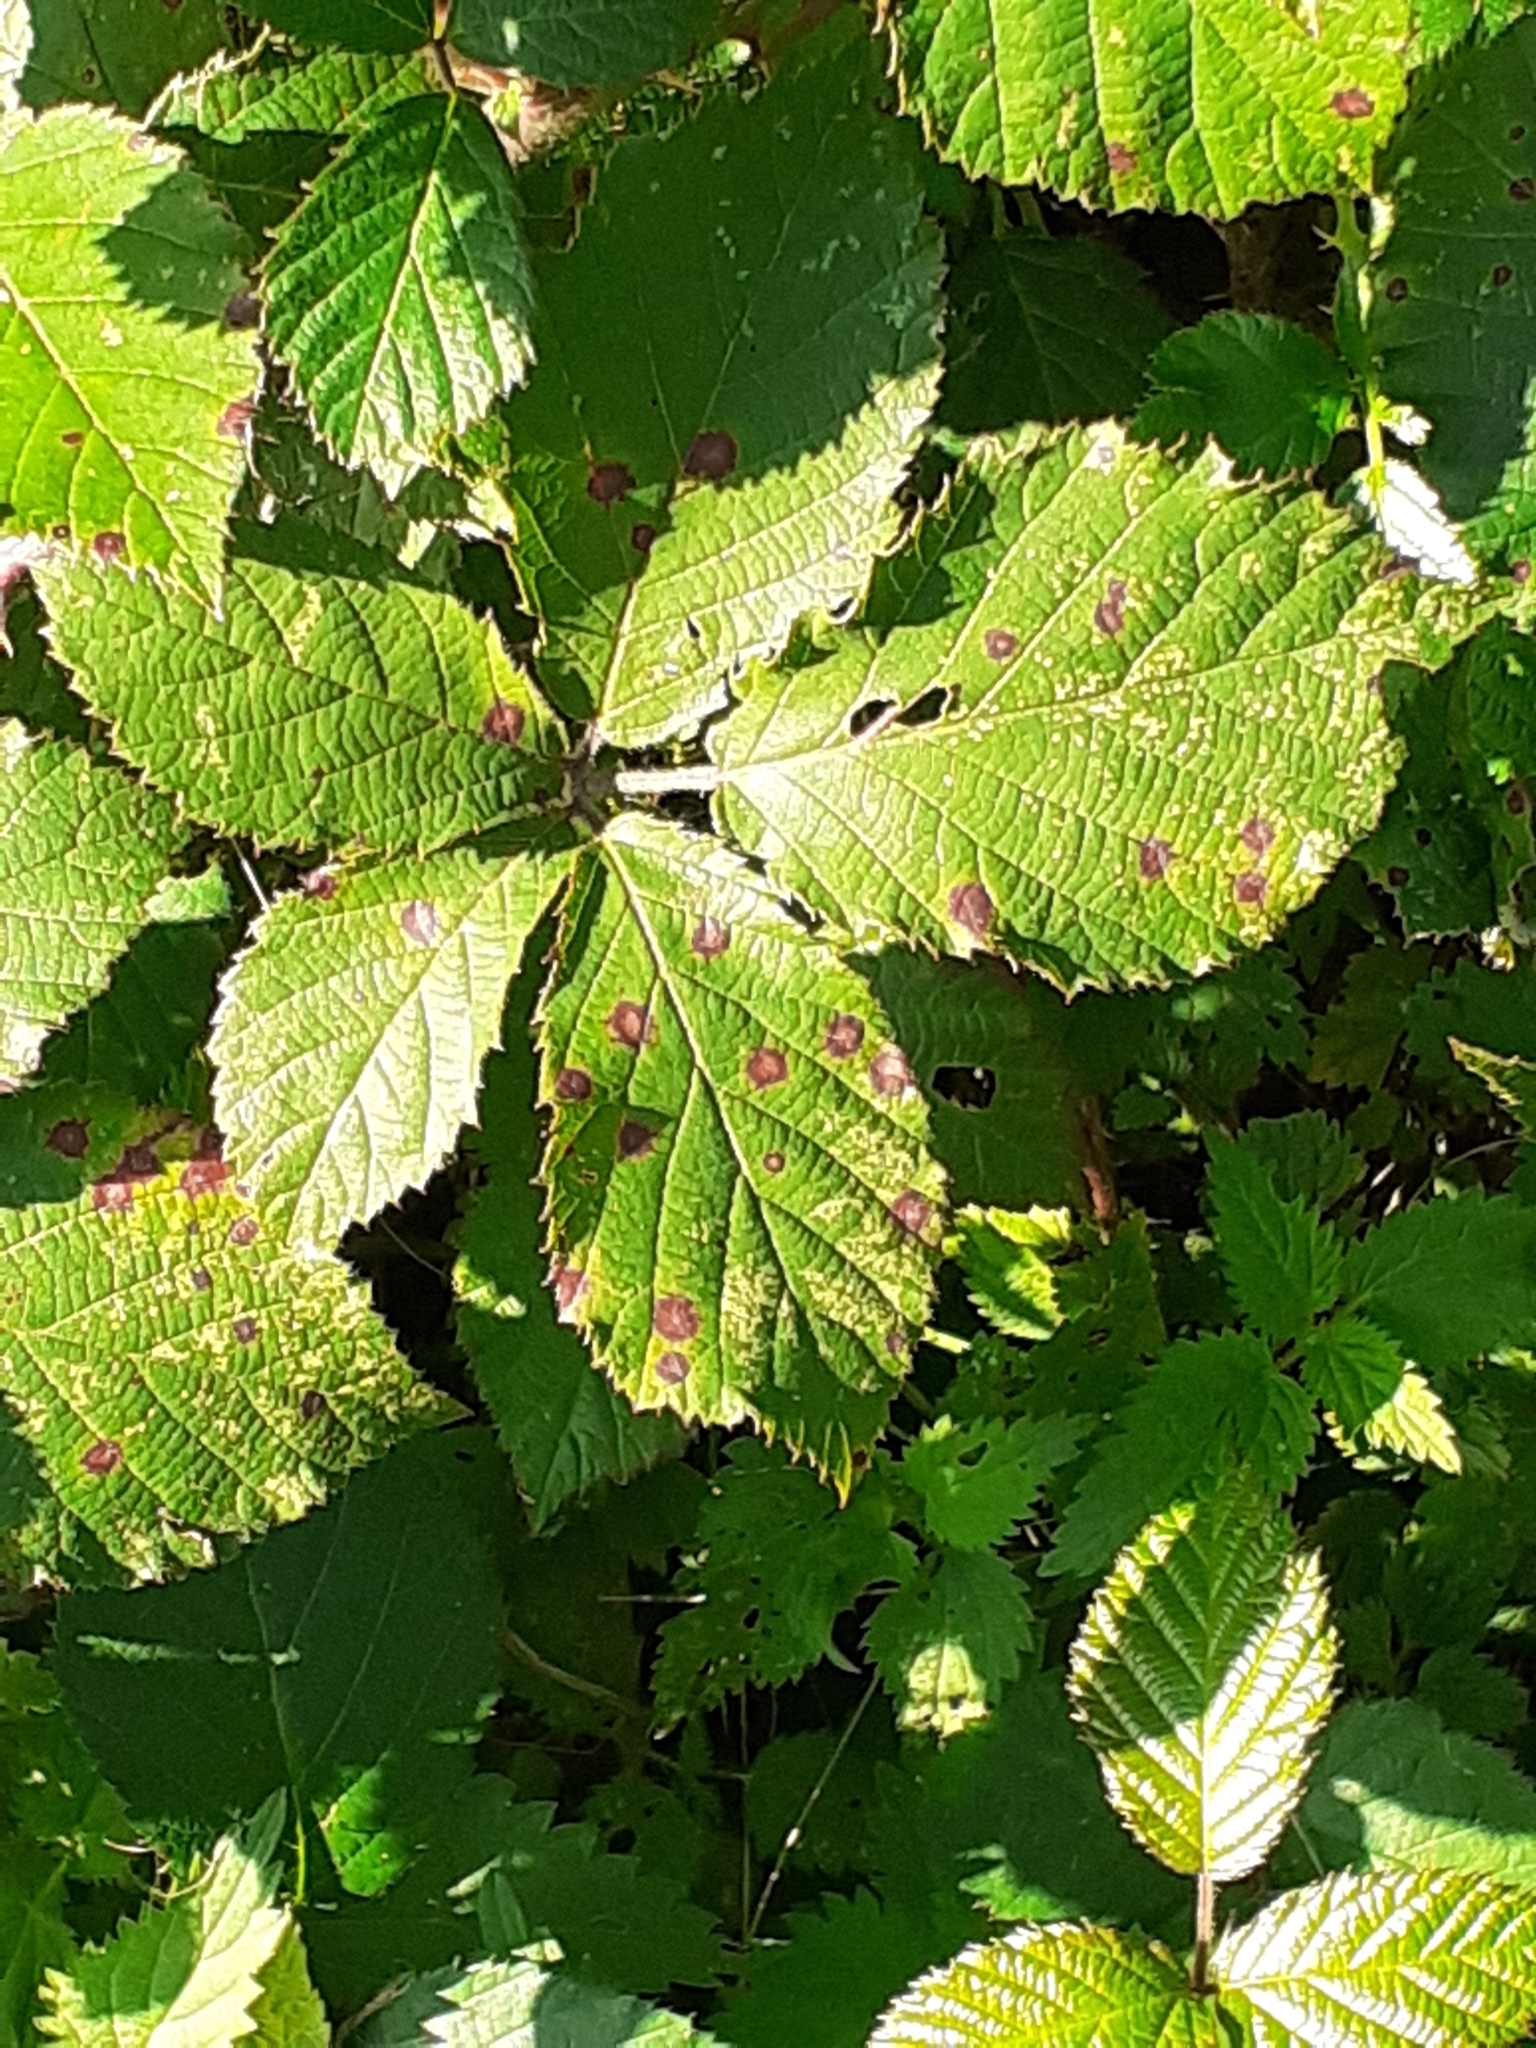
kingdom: Fungi
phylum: Basidiomycota
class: Pucciniomycetes
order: Pucciniales
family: Phragmidiaceae
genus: Phragmidium
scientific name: Phragmidium violaceum
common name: Violet bramble rust
